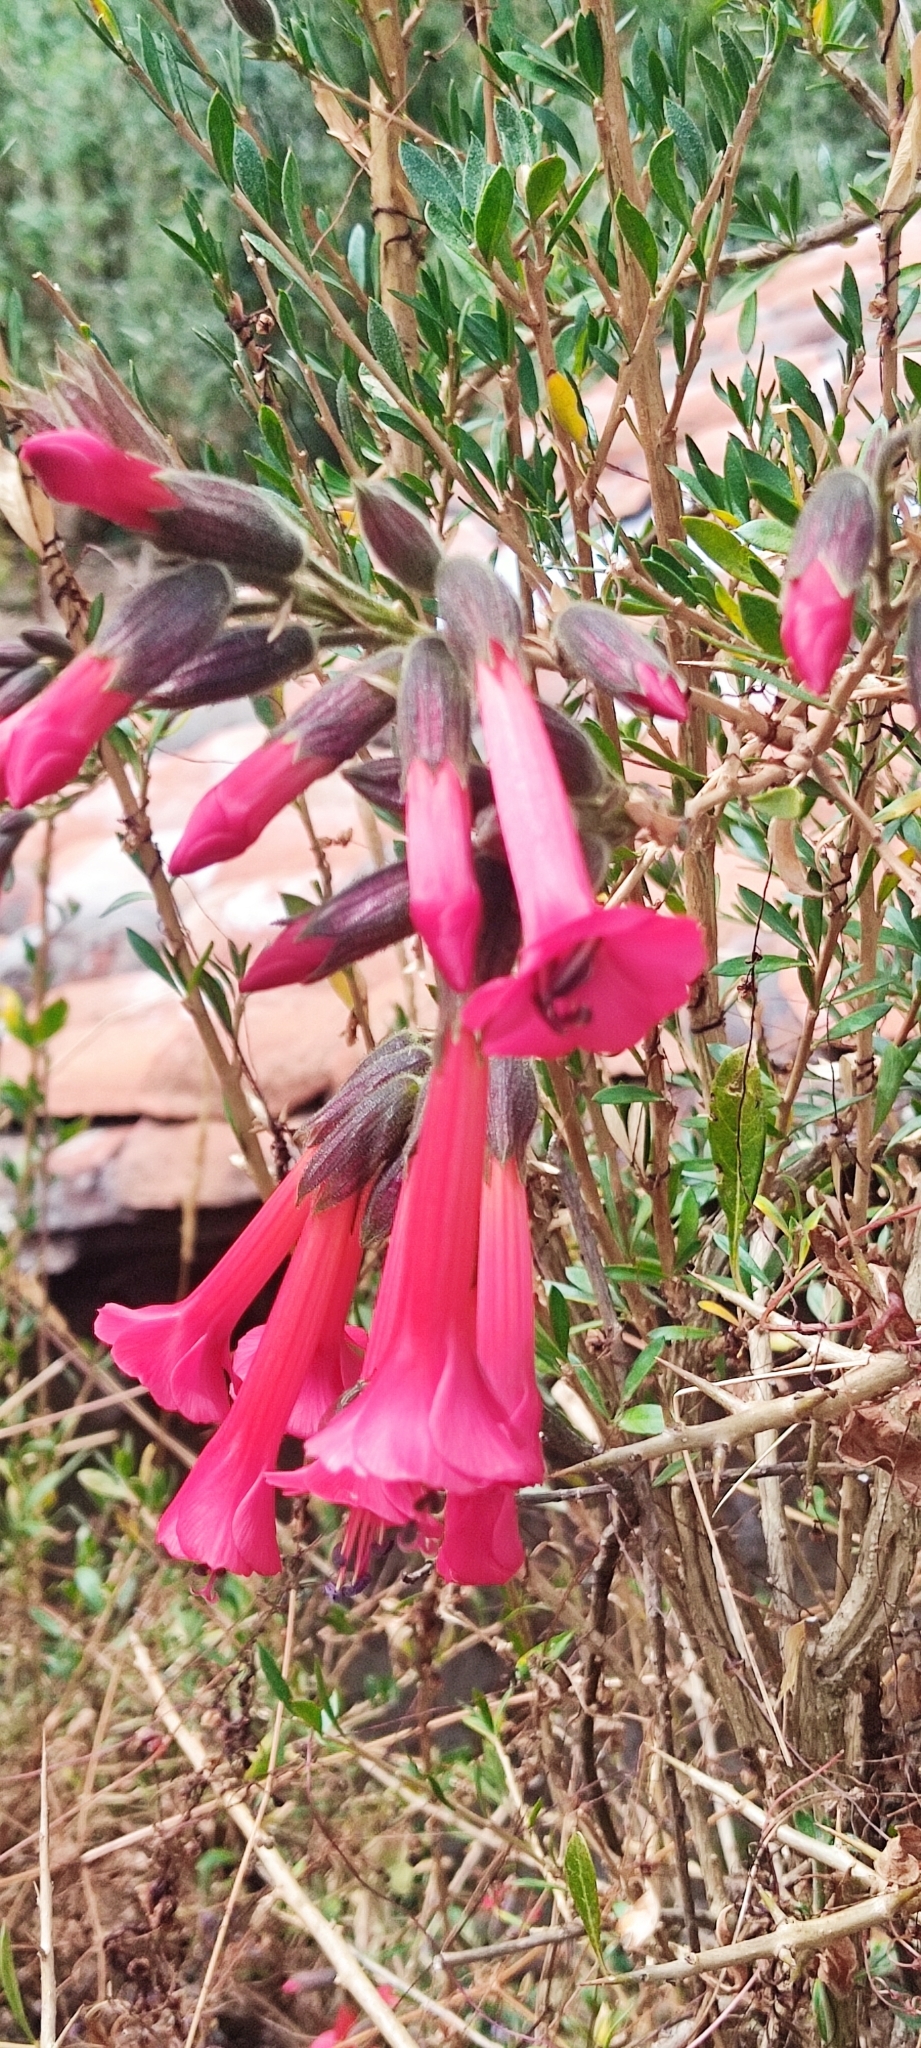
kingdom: Plantae
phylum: Tracheophyta
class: Magnoliopsida
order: Ericales
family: Polemoniaceae
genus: Cantua
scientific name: Cantua buxifolia
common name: Sacred-flower-of-the-incas
